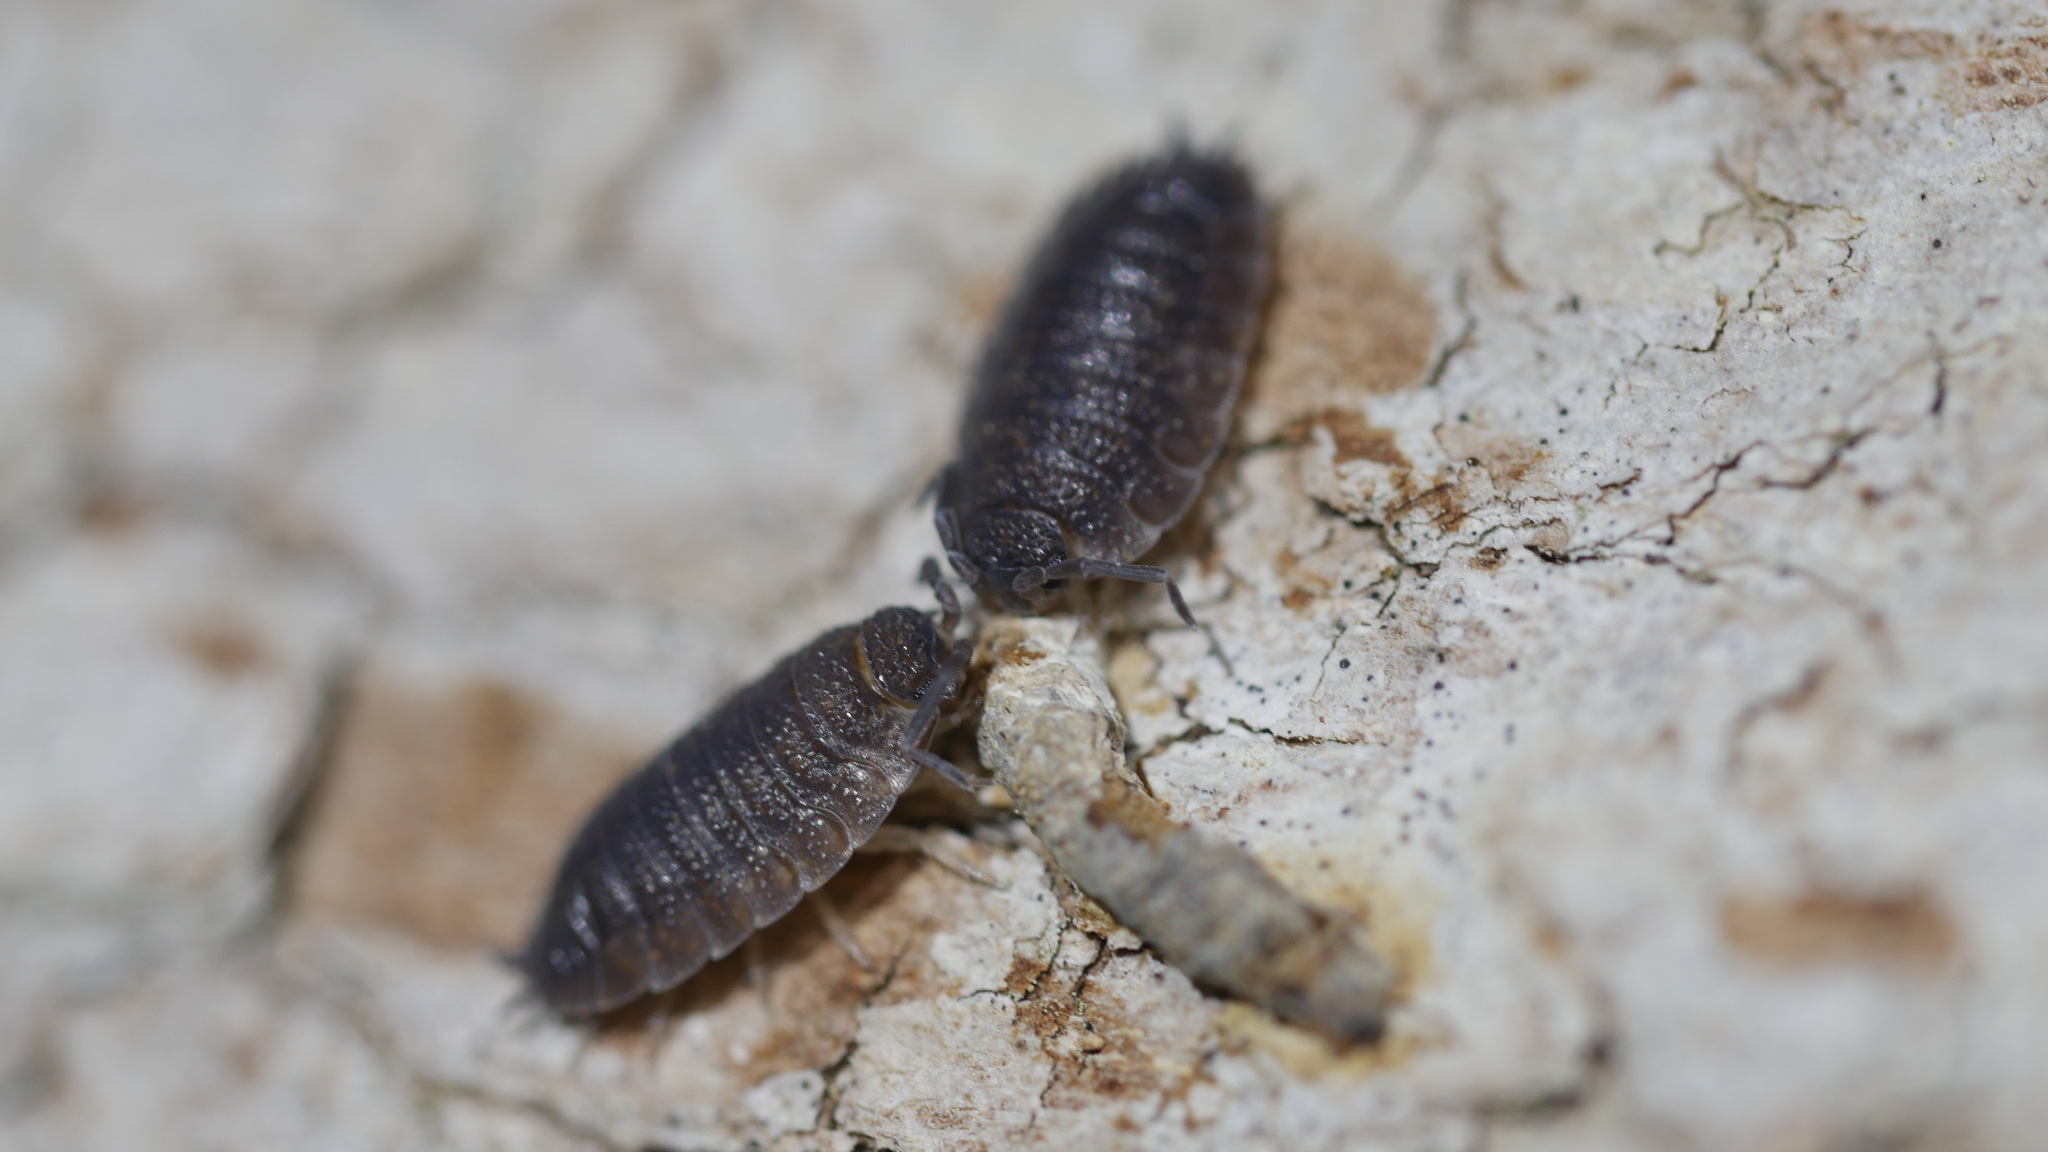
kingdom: Animalia
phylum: Arthropoda
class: Malacostraca
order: Isopoda
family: Porcellionidae
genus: Porcellio
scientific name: Porcellio scaber
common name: Common rough woodlouse
